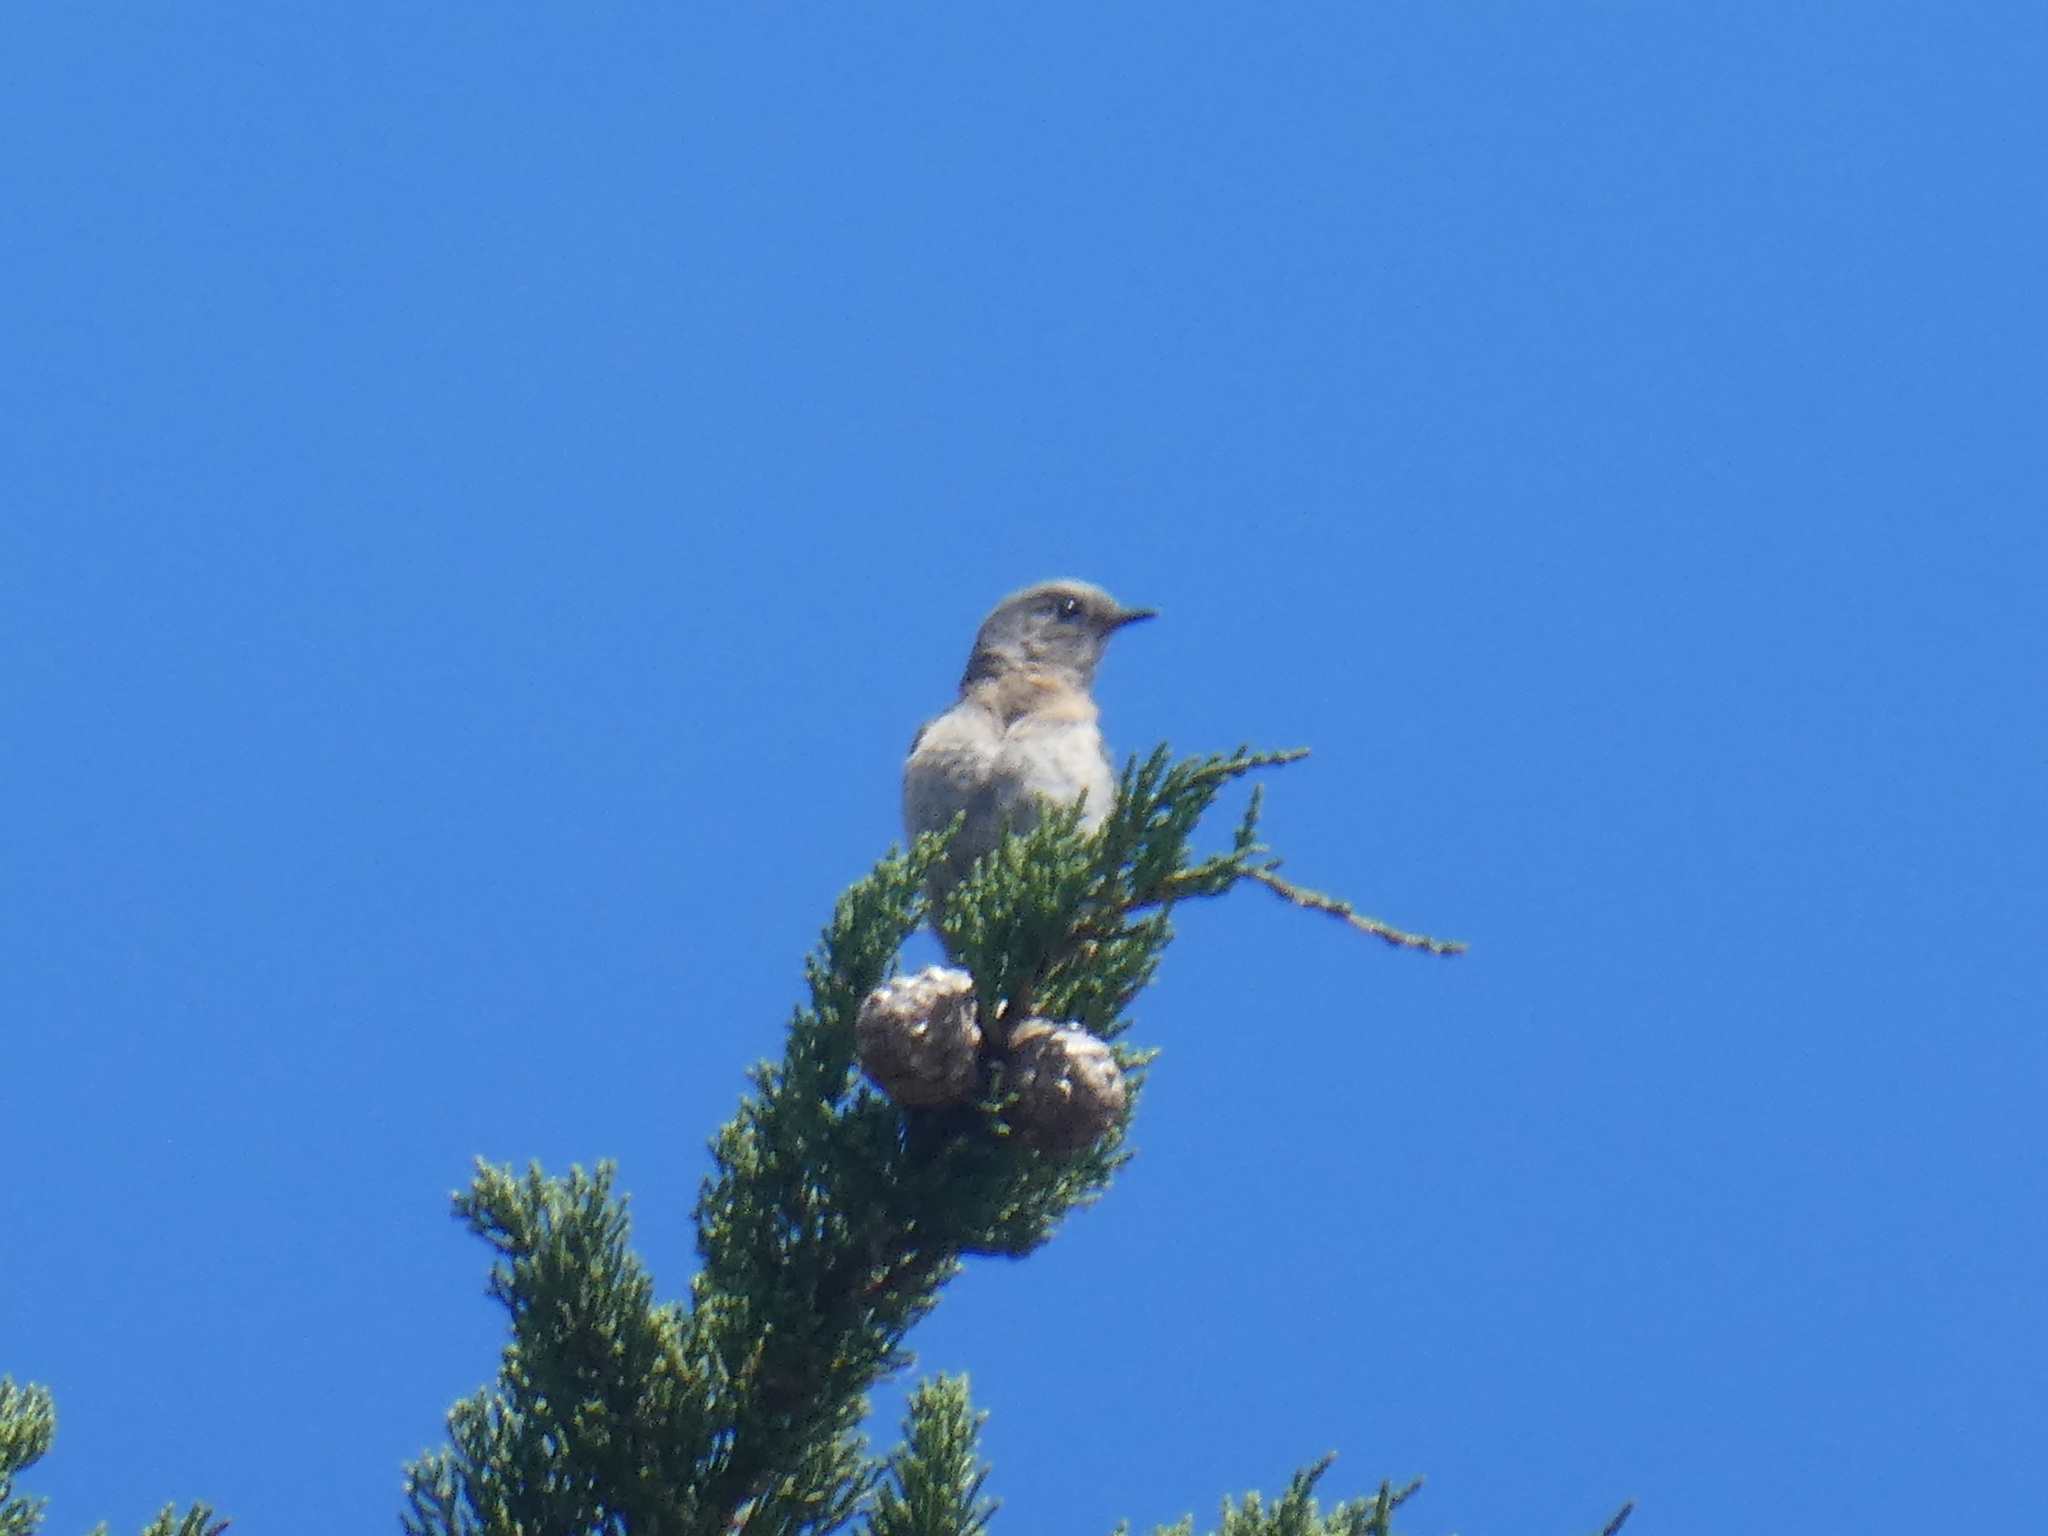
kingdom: Animalia
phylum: Chordata
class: Aves
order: Passeriformes
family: Turdidae
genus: Sialia
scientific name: Sialia mexicana
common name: Western bluebird
